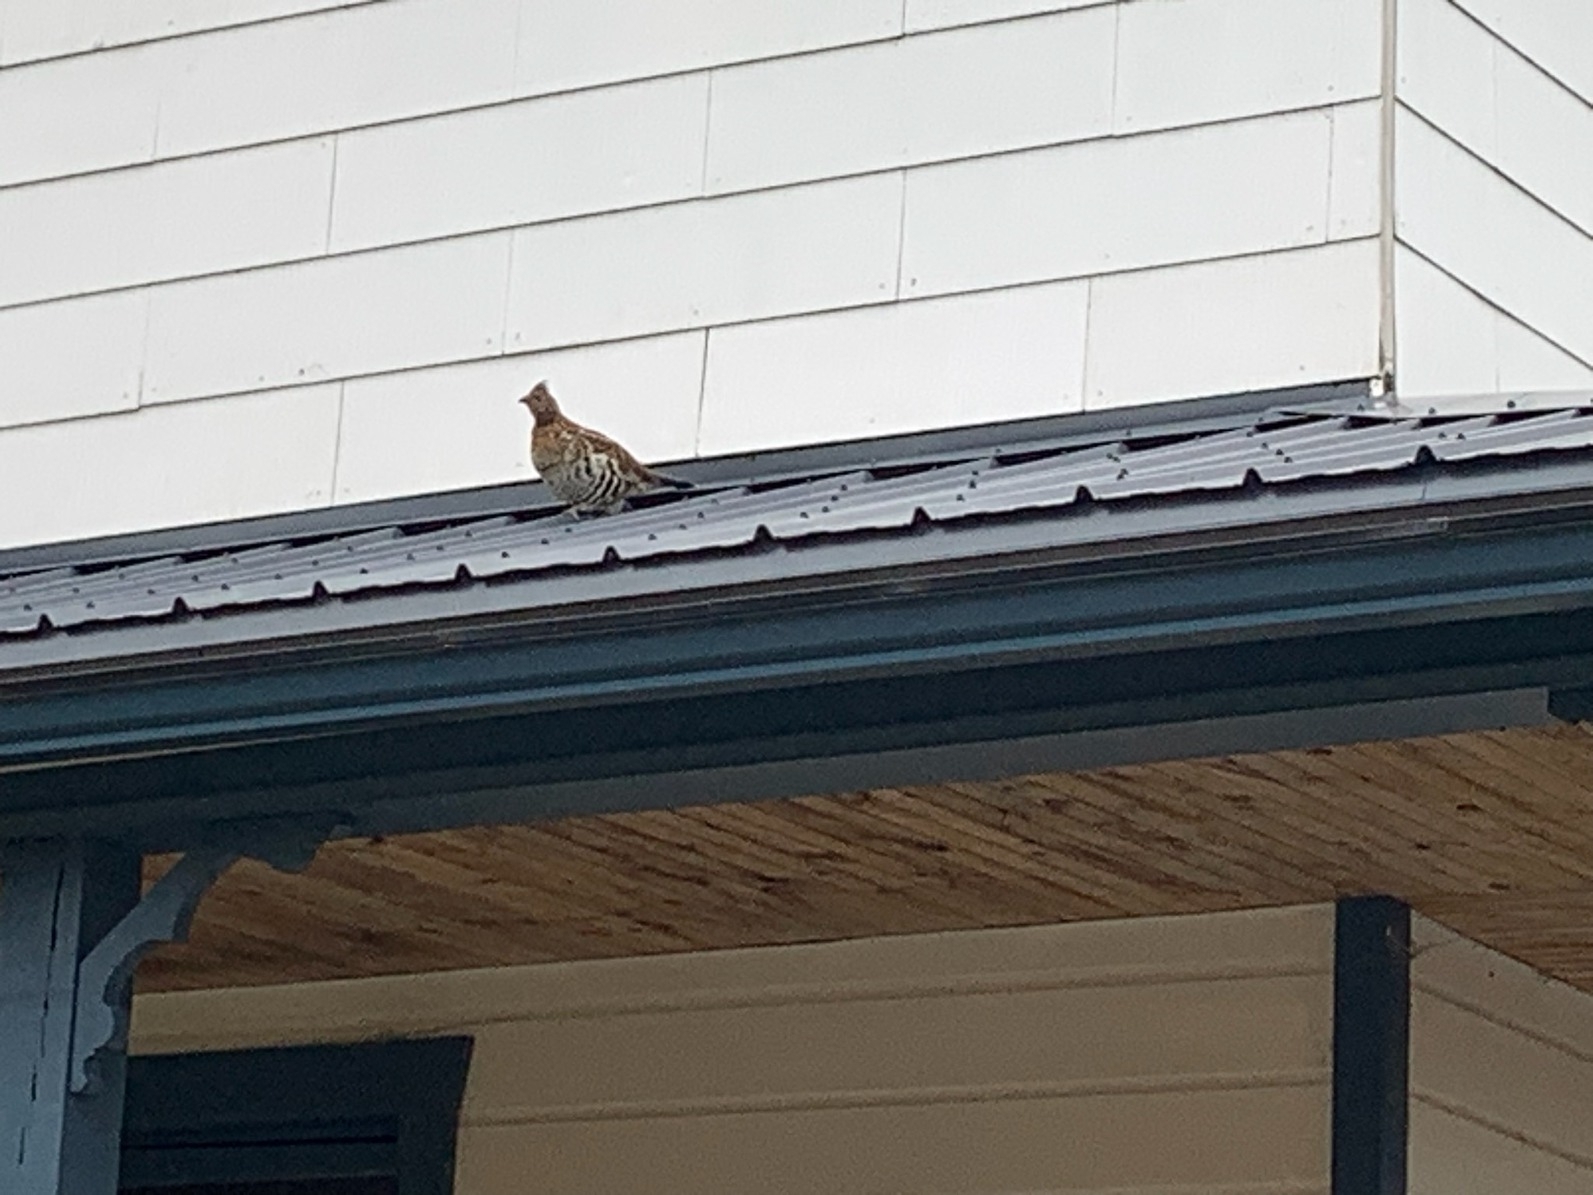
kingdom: Animalia
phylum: Chordata
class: Aves
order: Galliformes
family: Phasianidae
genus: Bonasa
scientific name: Bonasa umbellus
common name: Ruffed grouse
